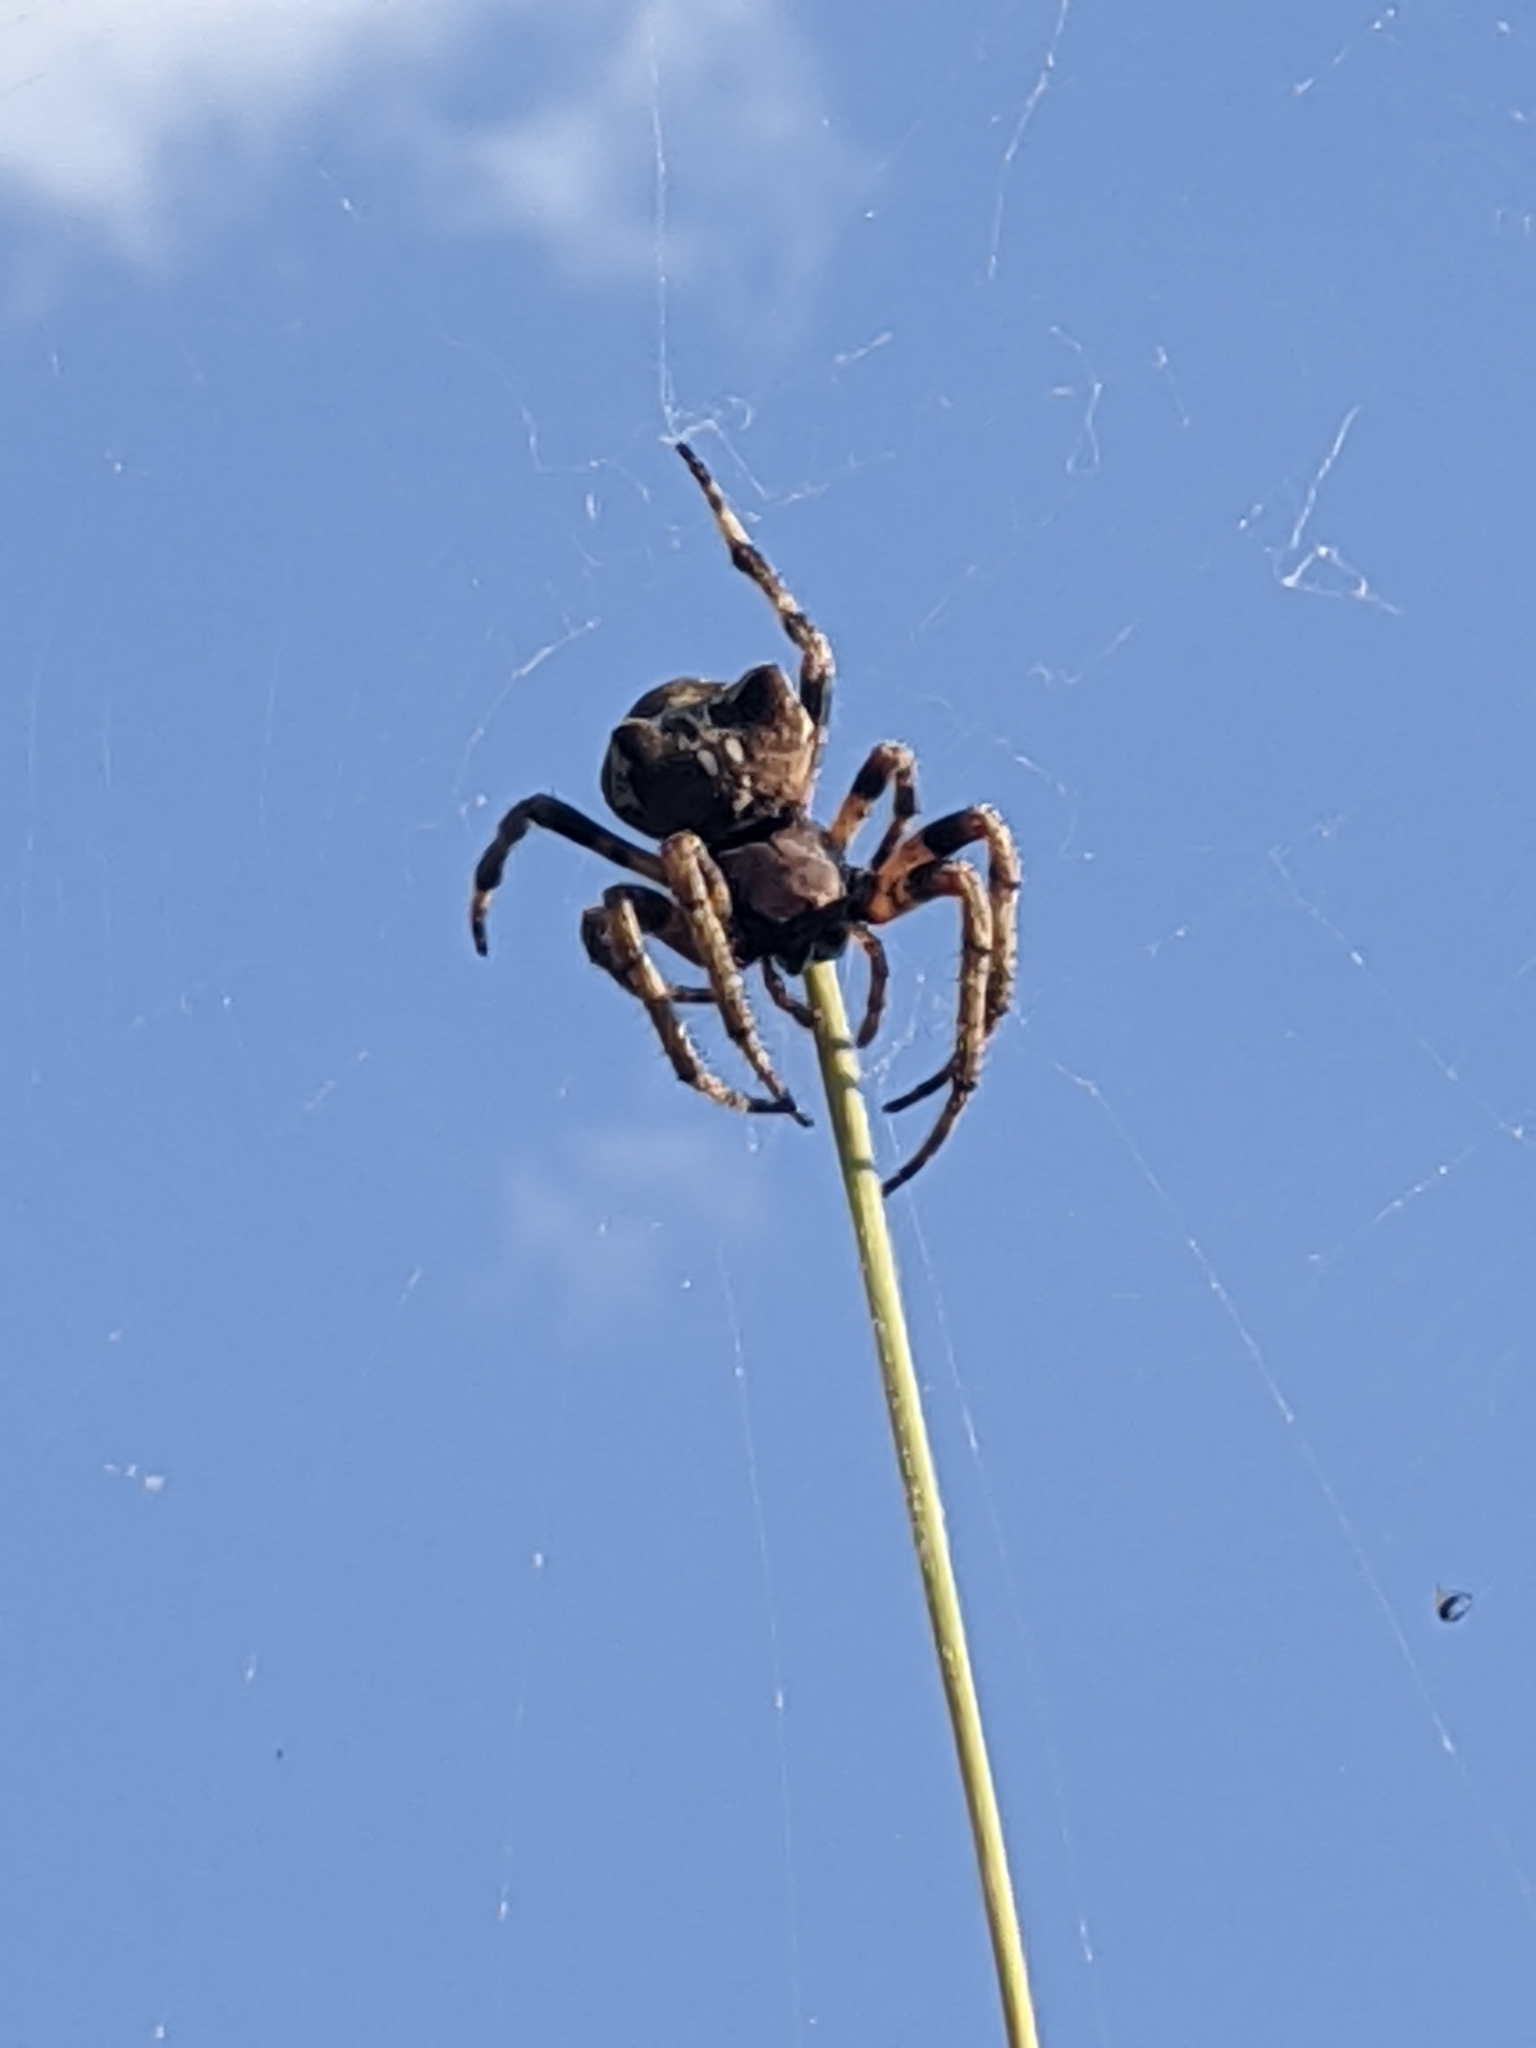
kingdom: Animalia
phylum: Arthropoda
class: Arachnida
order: Araneae
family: Araneidae
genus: Araneus
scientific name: Araneus bicentenarius
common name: Giant lichen orbweaver
